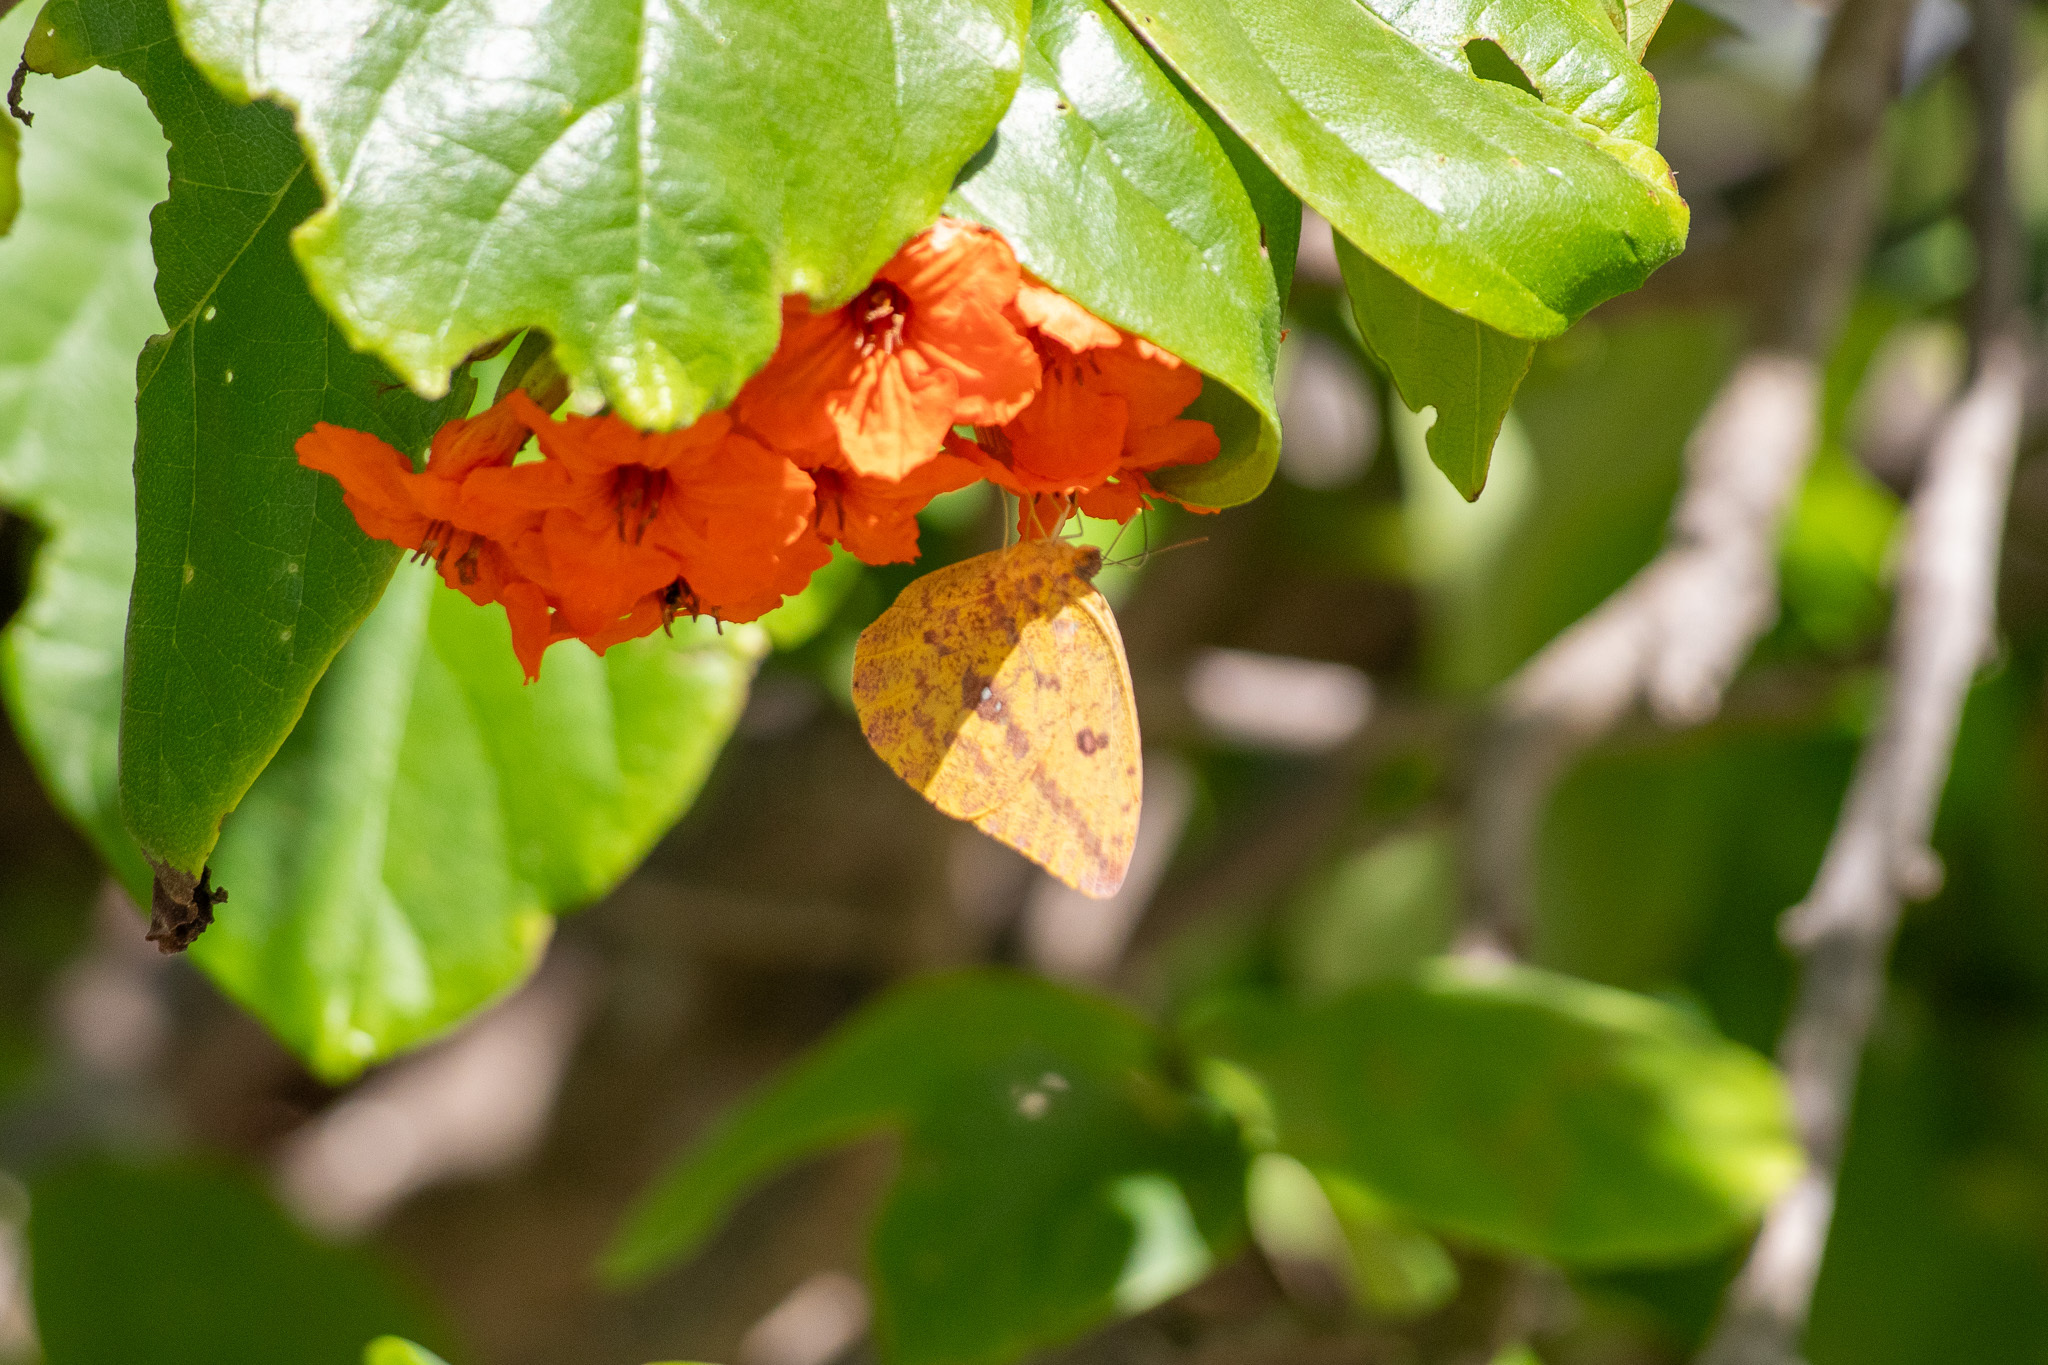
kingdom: Animalia
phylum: Arthropoda
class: Insecta
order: Lepidoptera
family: Pieridae
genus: Phoebis
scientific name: Phoebis agarithe
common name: Large orange sulphur
